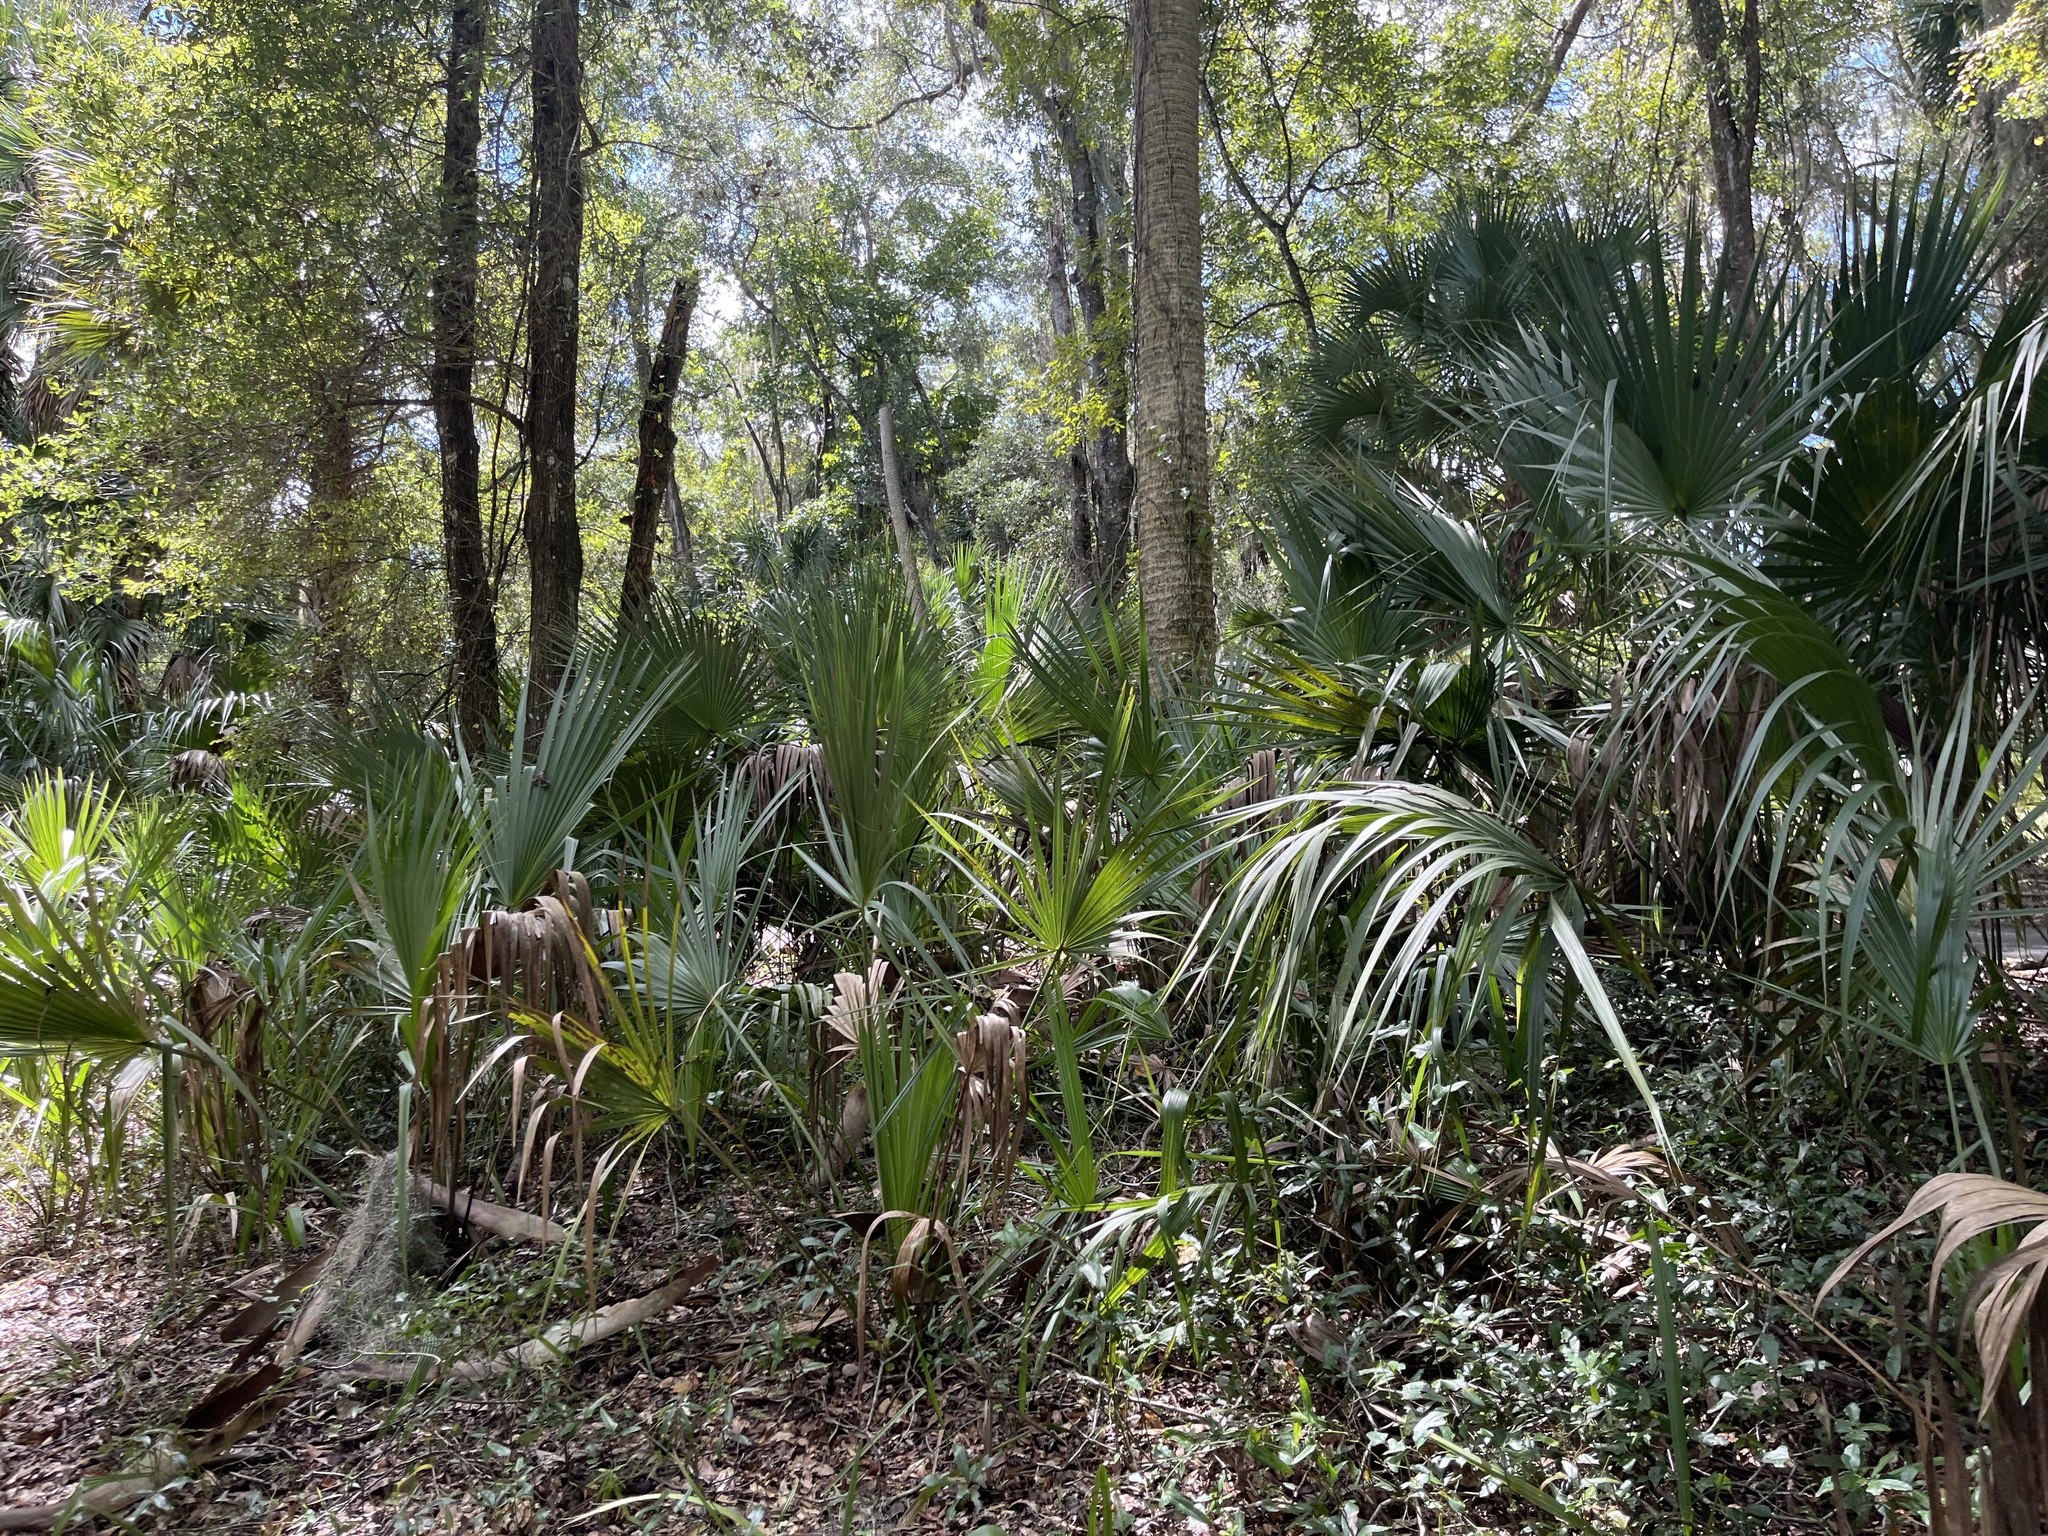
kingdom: Plantae
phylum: Tracheophyta
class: Liliopsida
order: Arecales
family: Arecaceae
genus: Sabal
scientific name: Sabal palmetto
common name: Blue palmetto
